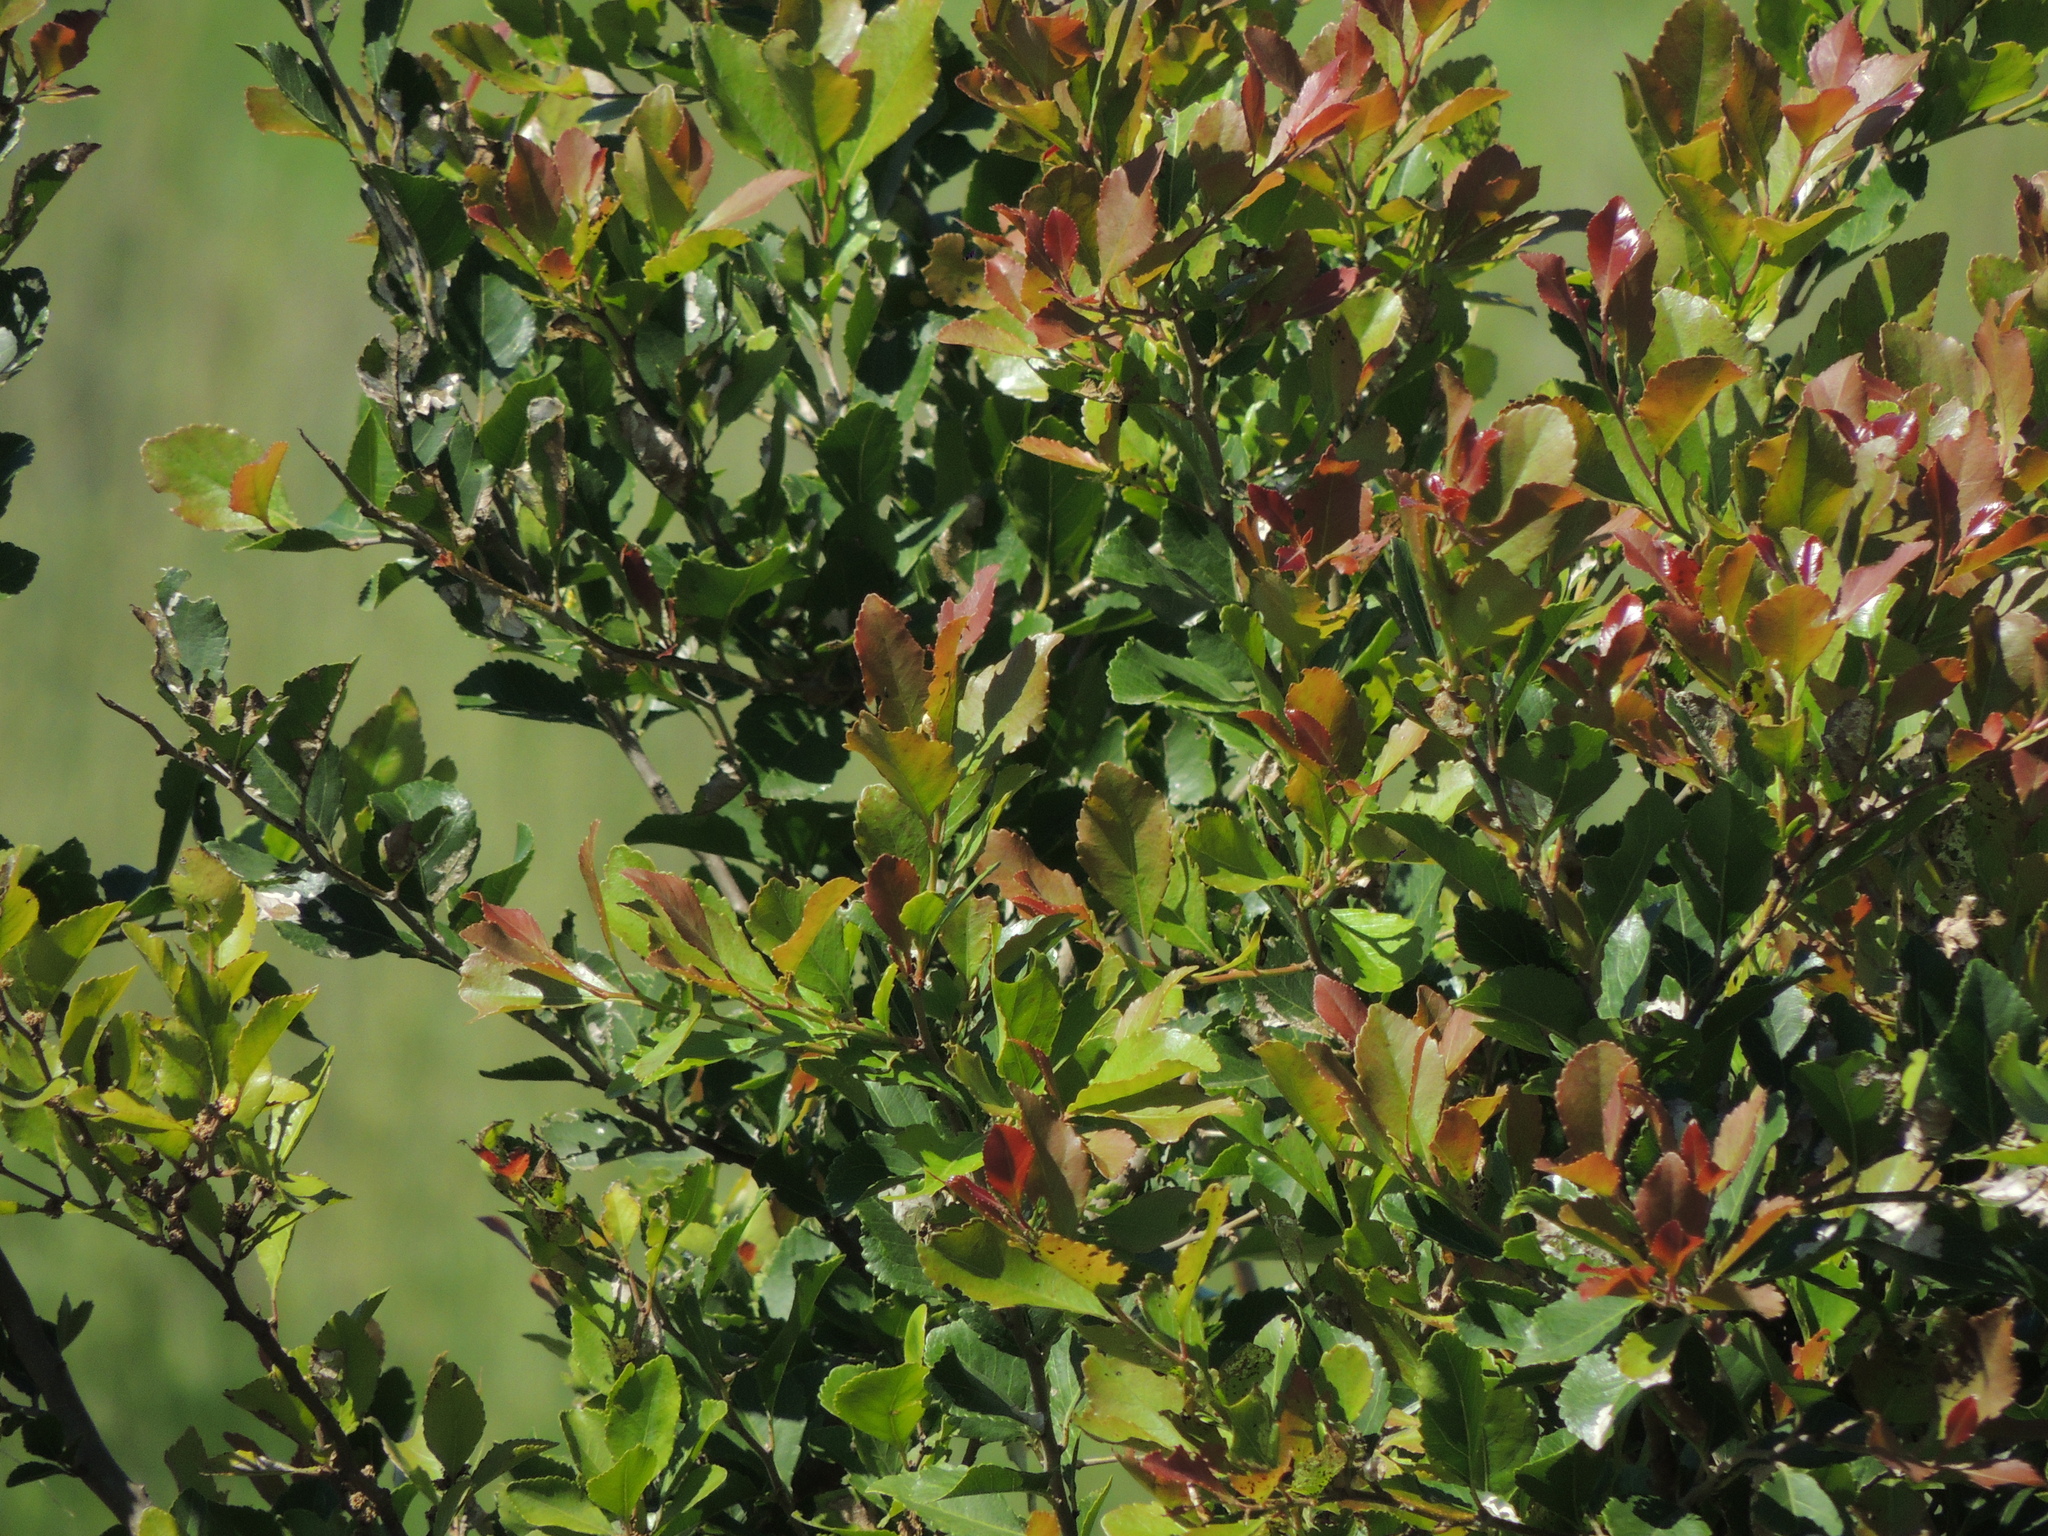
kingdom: Plantae
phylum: Tracheophyta
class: Magnoliopsida
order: Malpighiales
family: Salicaceae
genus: Xylosma
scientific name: Xylosma venosa
